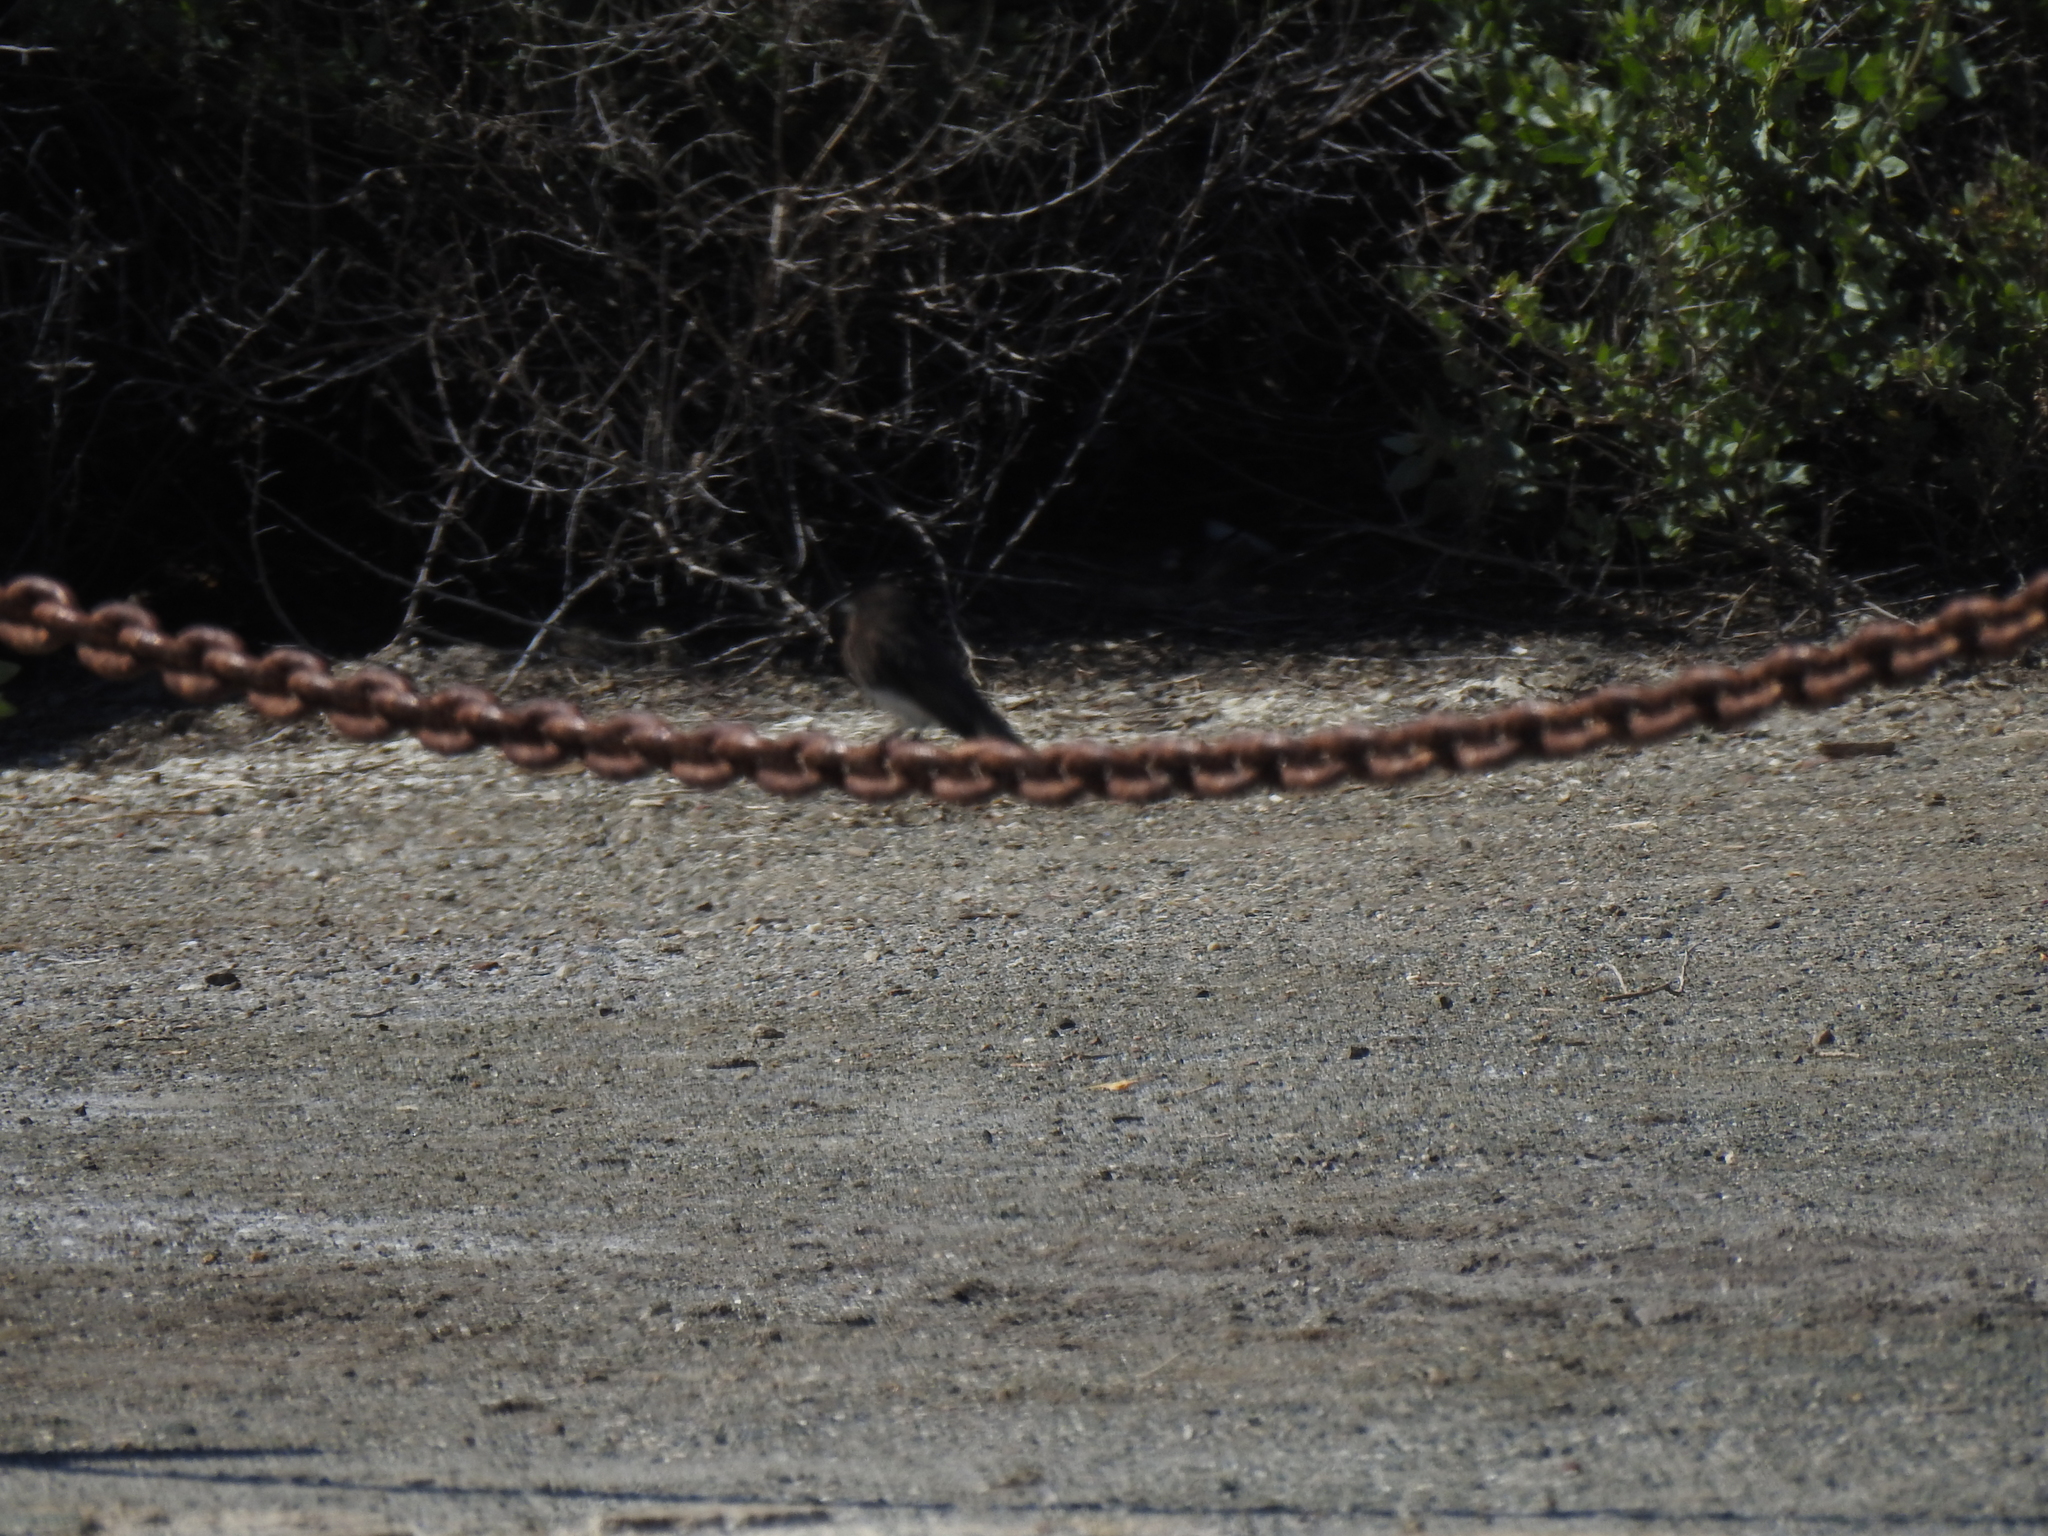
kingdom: Animalia
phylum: Chordata
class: Aves
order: Passeriformes
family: Tyrannidae
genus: Sayornis
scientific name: Sayornis nigricans
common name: Black phoebe
